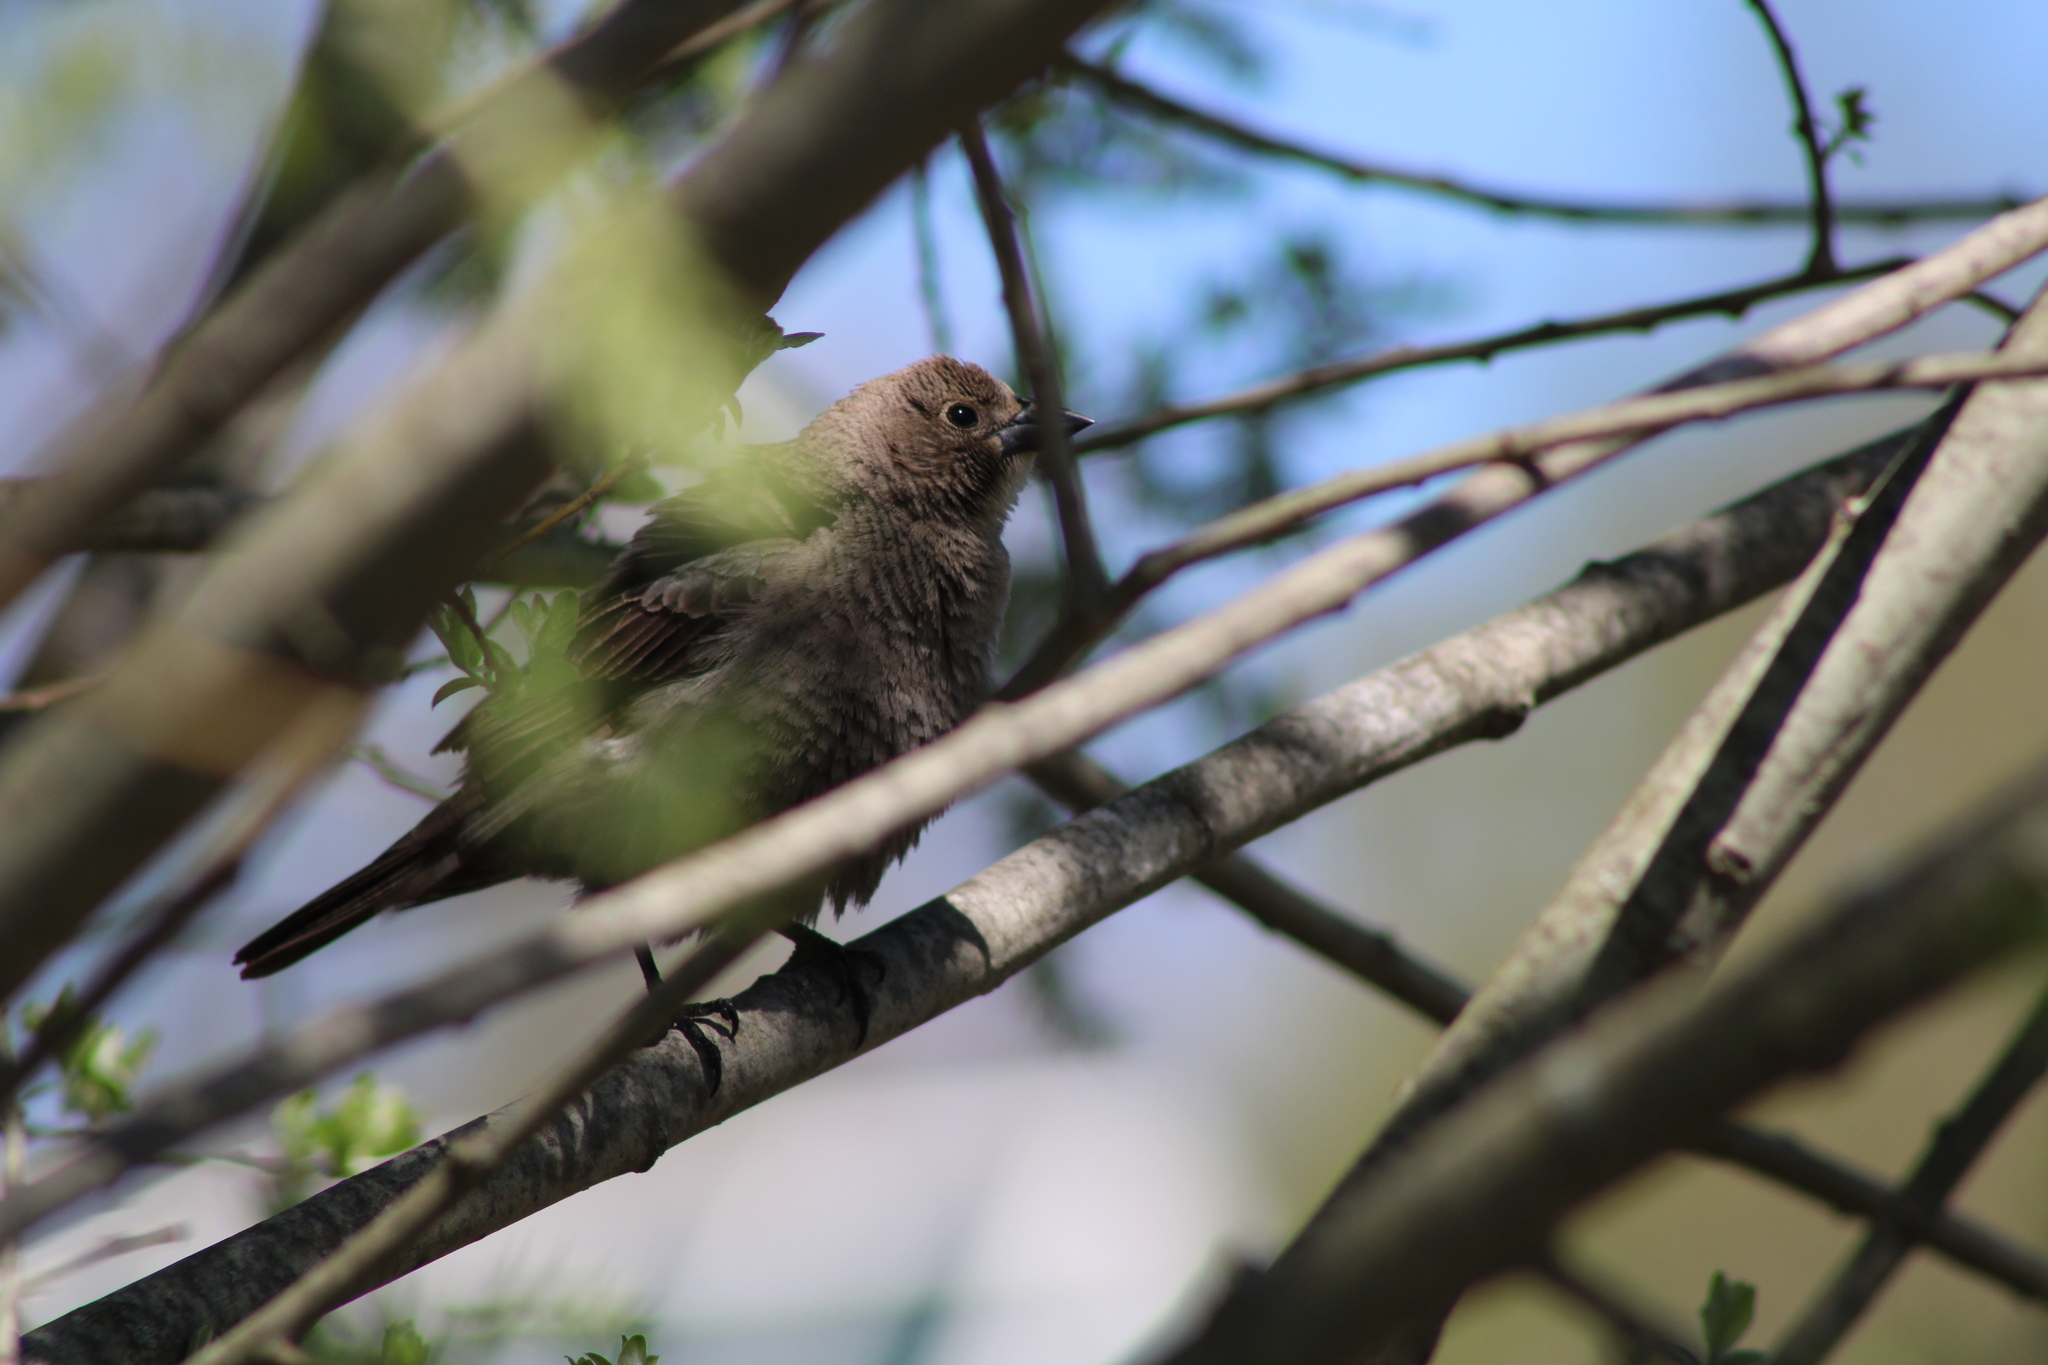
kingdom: Animalia
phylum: Chordata
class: Aves
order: Passeriformes
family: Icteridae
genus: Molothrus
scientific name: Molothrus ater
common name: Brown-headed cowbird
